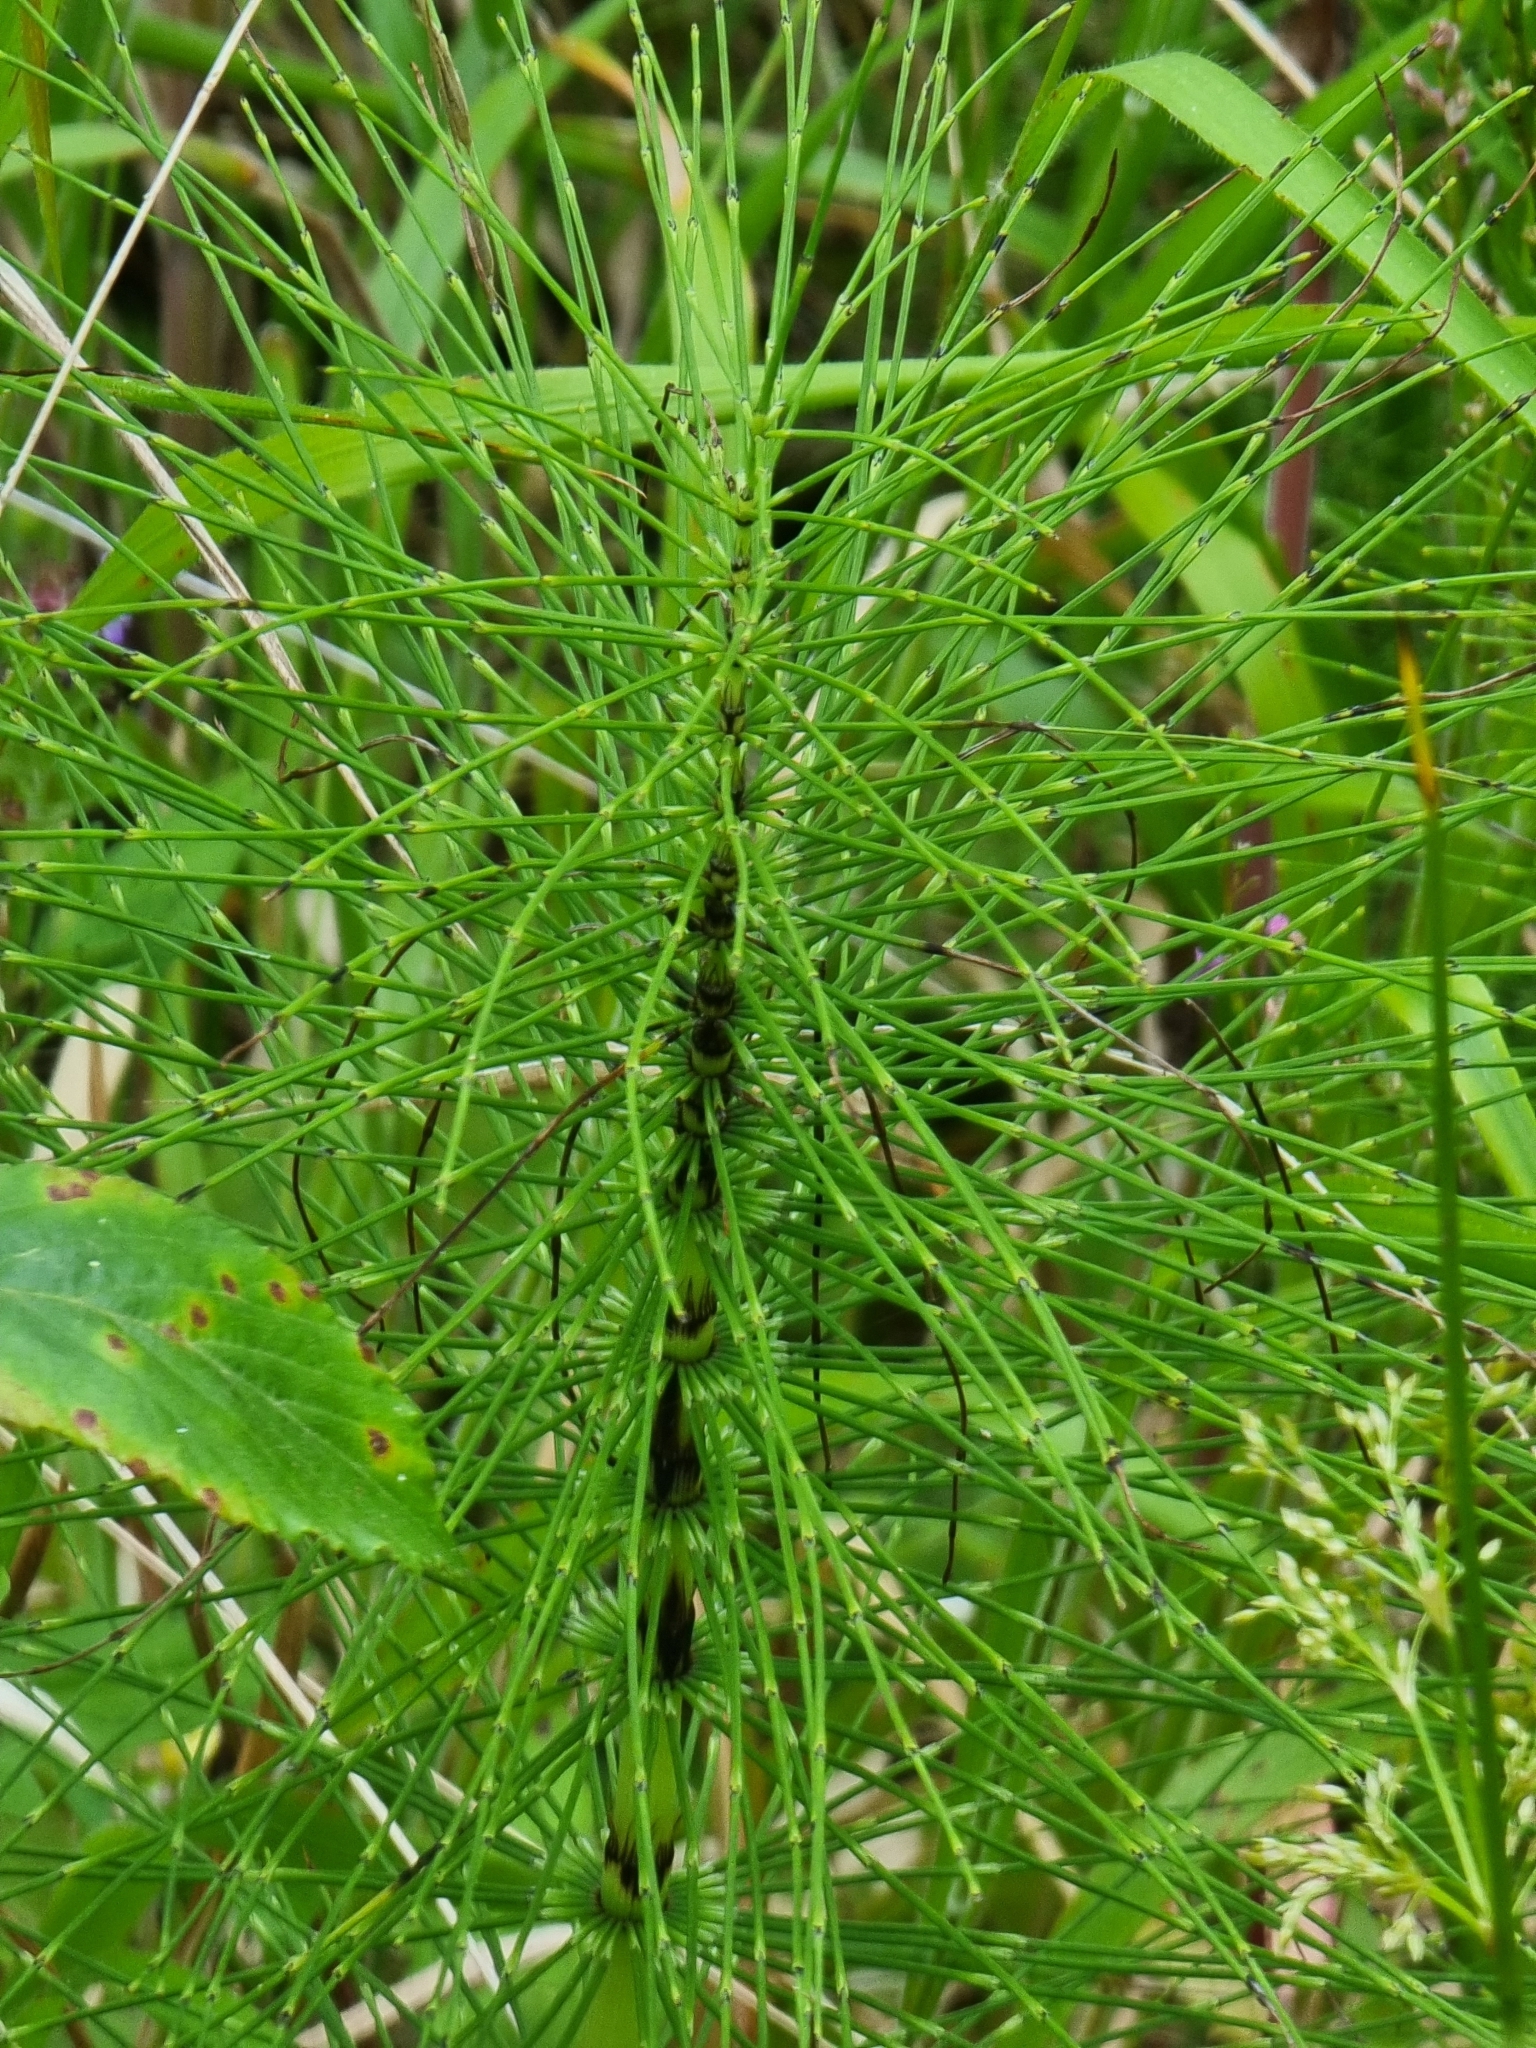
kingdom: Plantae
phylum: Tracheophyta
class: Polypodiopsida
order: Equisetales
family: Equisetaceae
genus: Equisetum
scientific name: Equisetum telmateia
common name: Great horsetail
